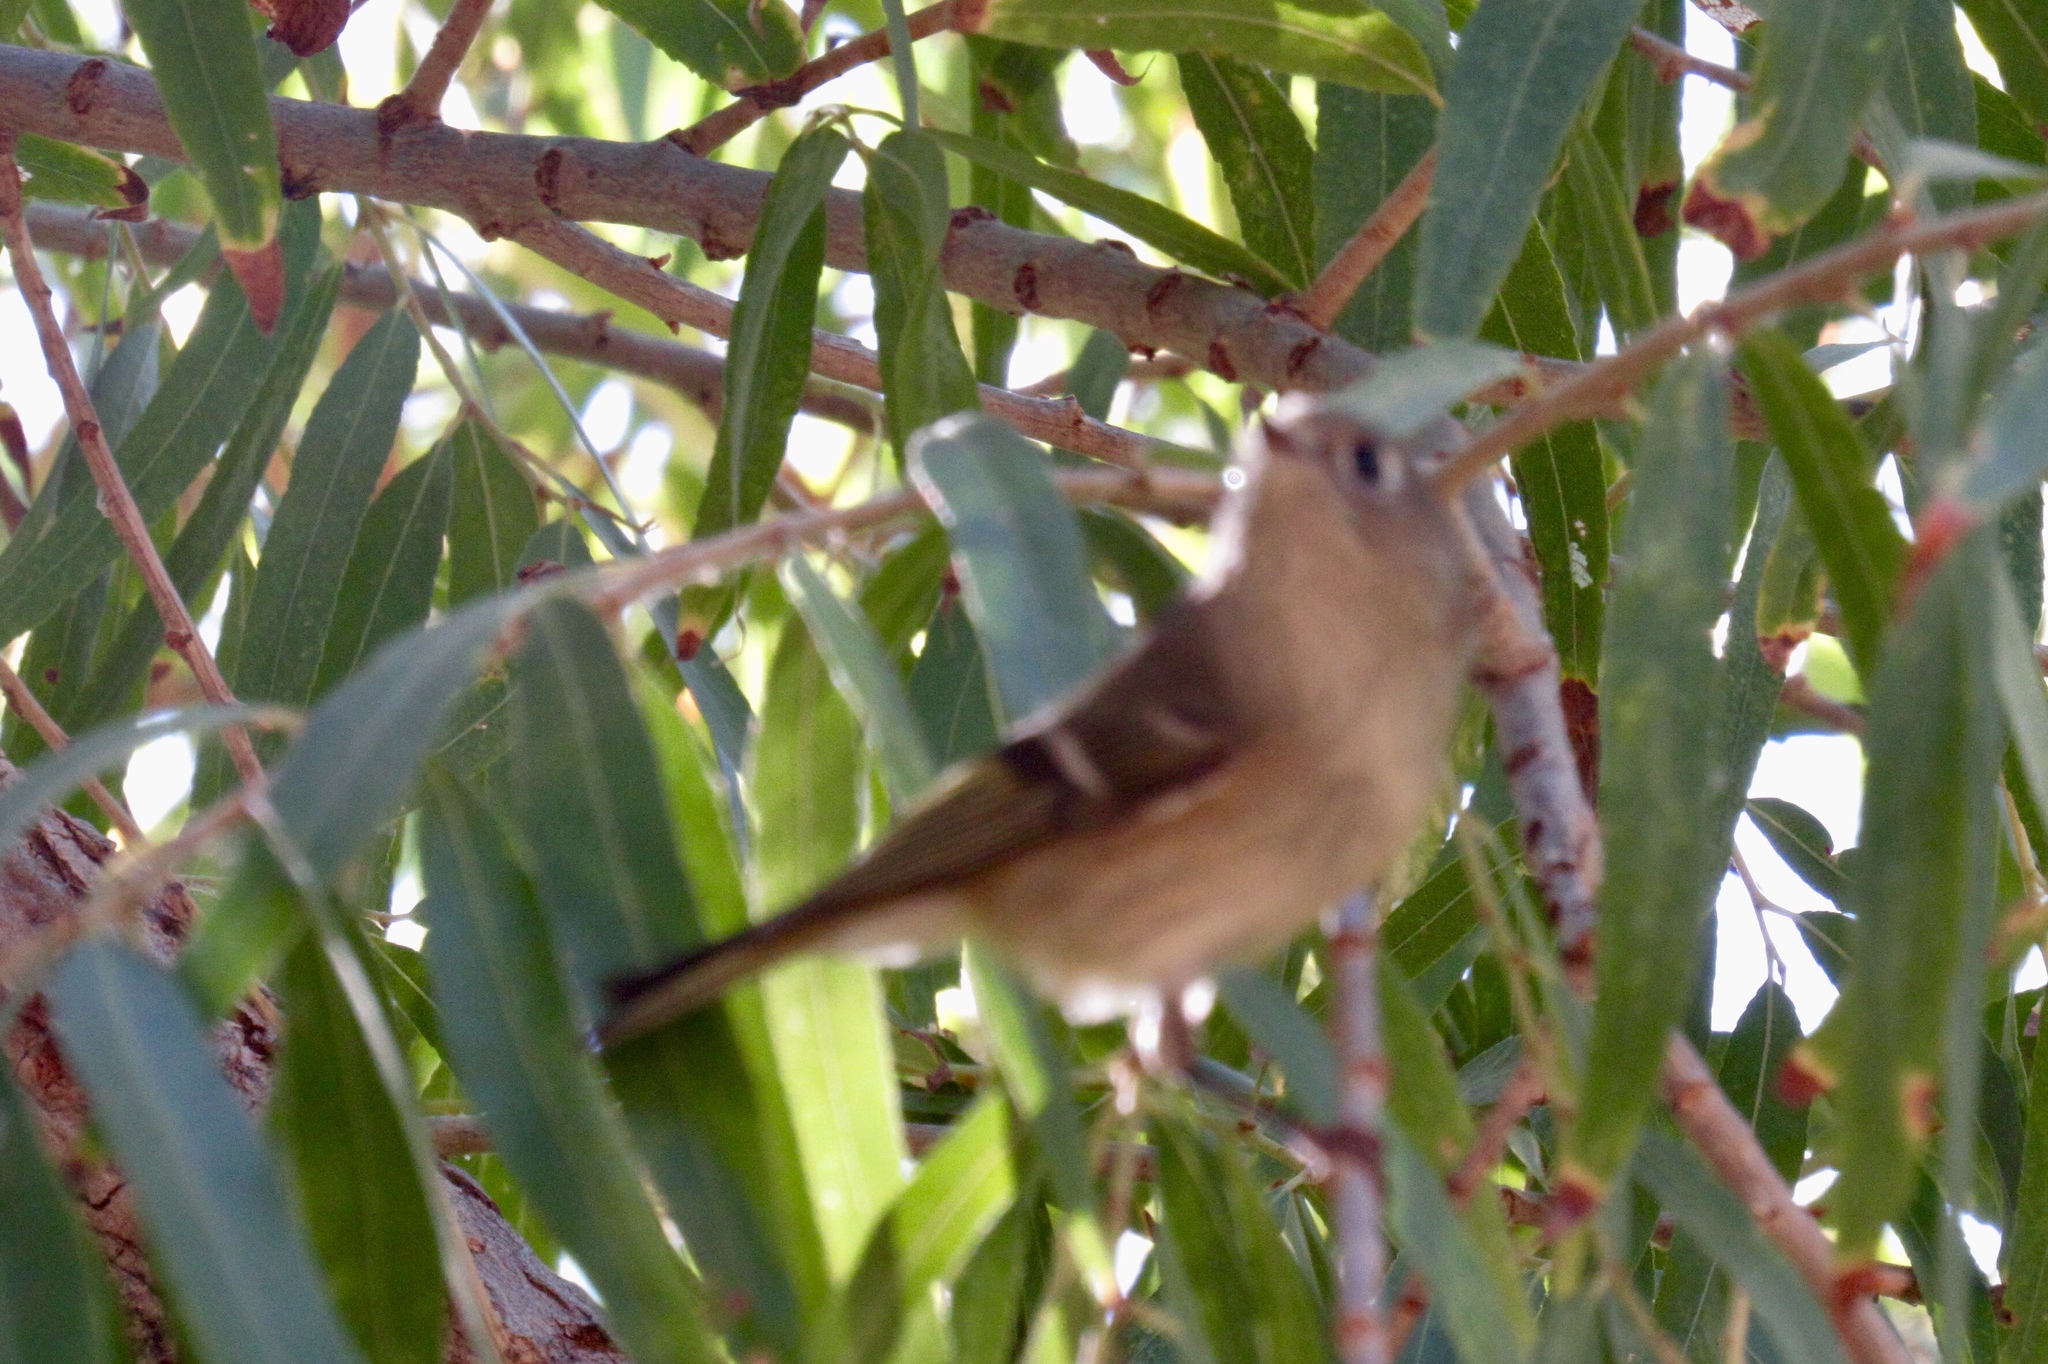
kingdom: Animalia
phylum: Chordata
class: Aves
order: Passeriformes
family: Regulidae
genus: Regulus
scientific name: Regulus calendula
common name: Ruby-crowned kinglet
